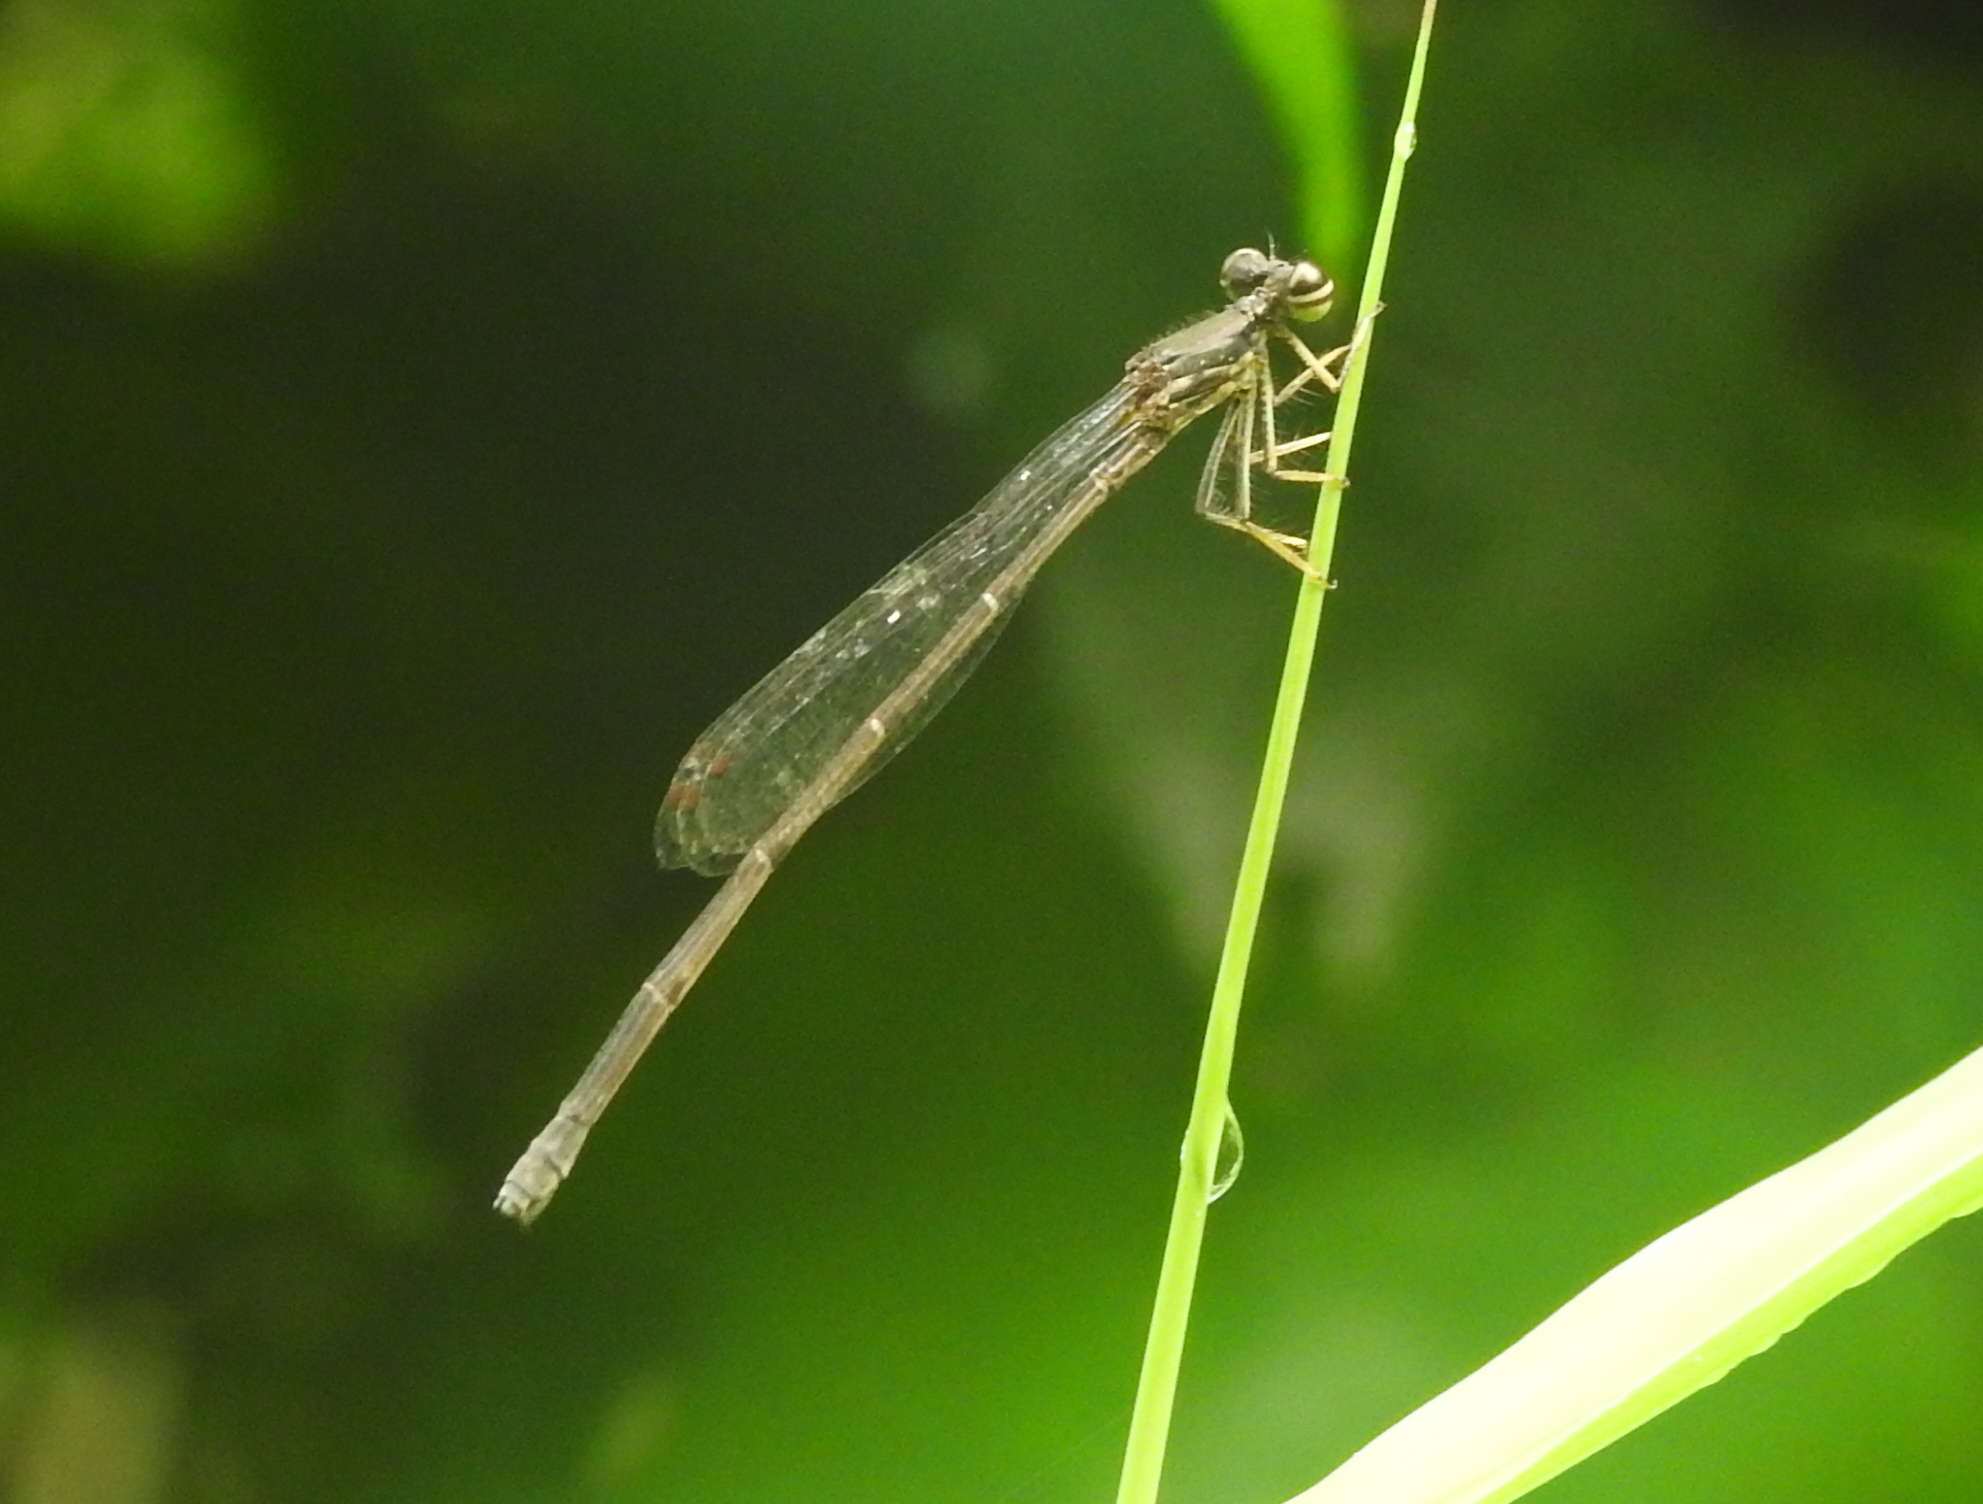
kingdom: Animalia
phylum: Arthropoda
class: Insecta
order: Odonata
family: Platycnemididae
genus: Copera
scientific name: Copera marginipes
